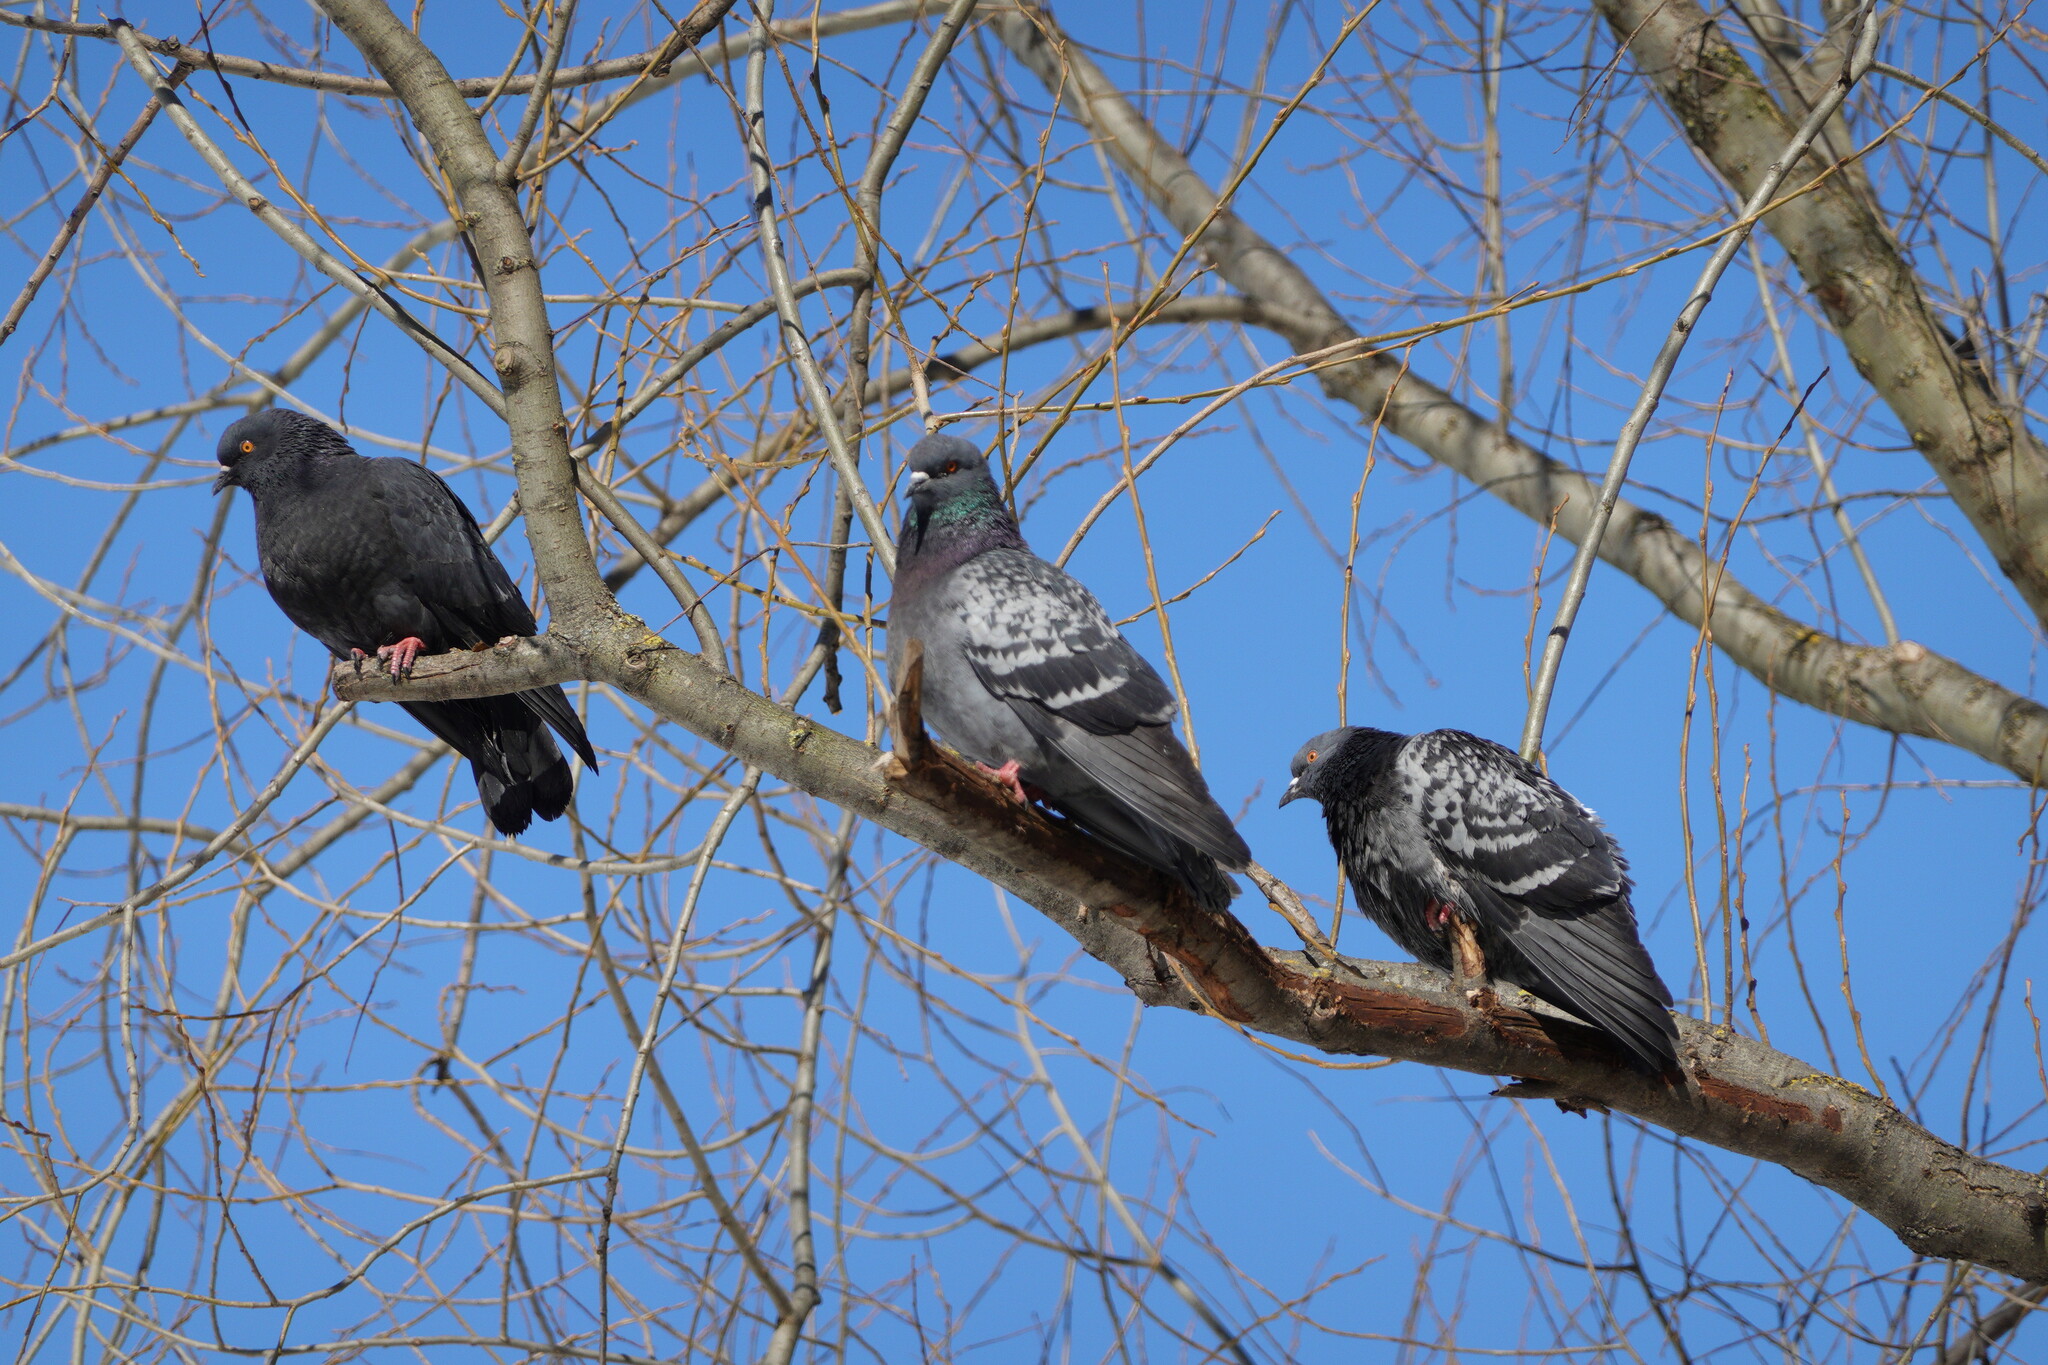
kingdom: Animalia
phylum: Chordata
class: Aves
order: Columbiformes
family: Columbidae
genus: Columba
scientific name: Columba livia
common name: Rock pigeon
